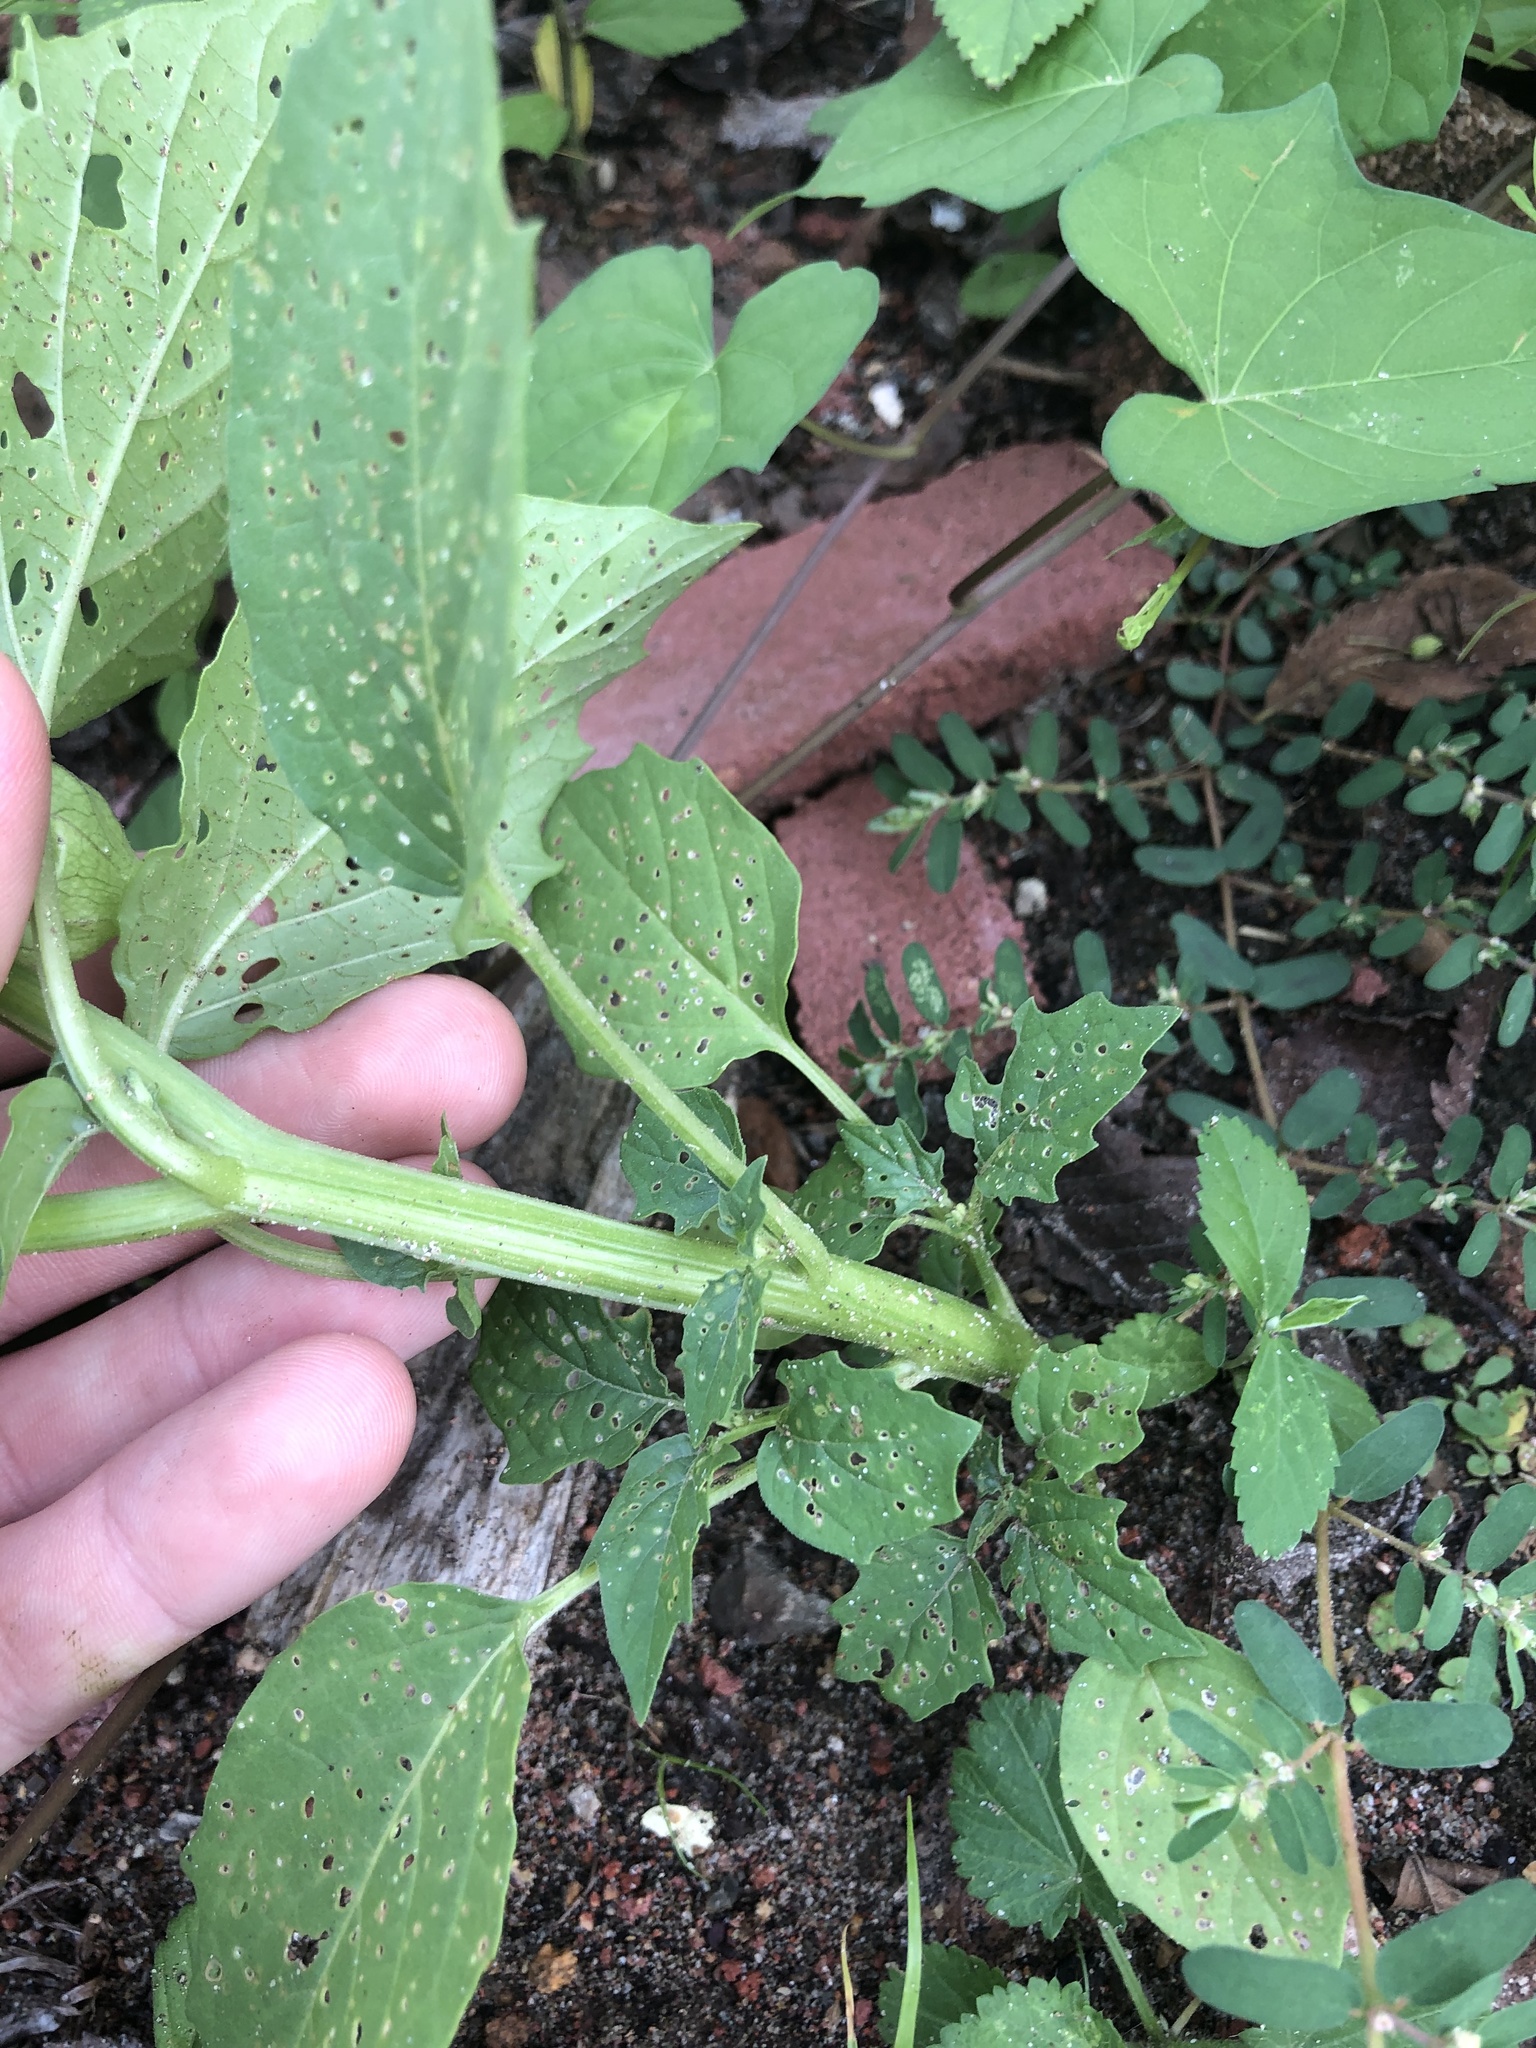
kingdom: Plantae
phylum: Tracheophyta
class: Magnoliopsida
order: Solanales
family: Solanaceae
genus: Physalis
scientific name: Physalis angulata
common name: Angular winter-cherry
